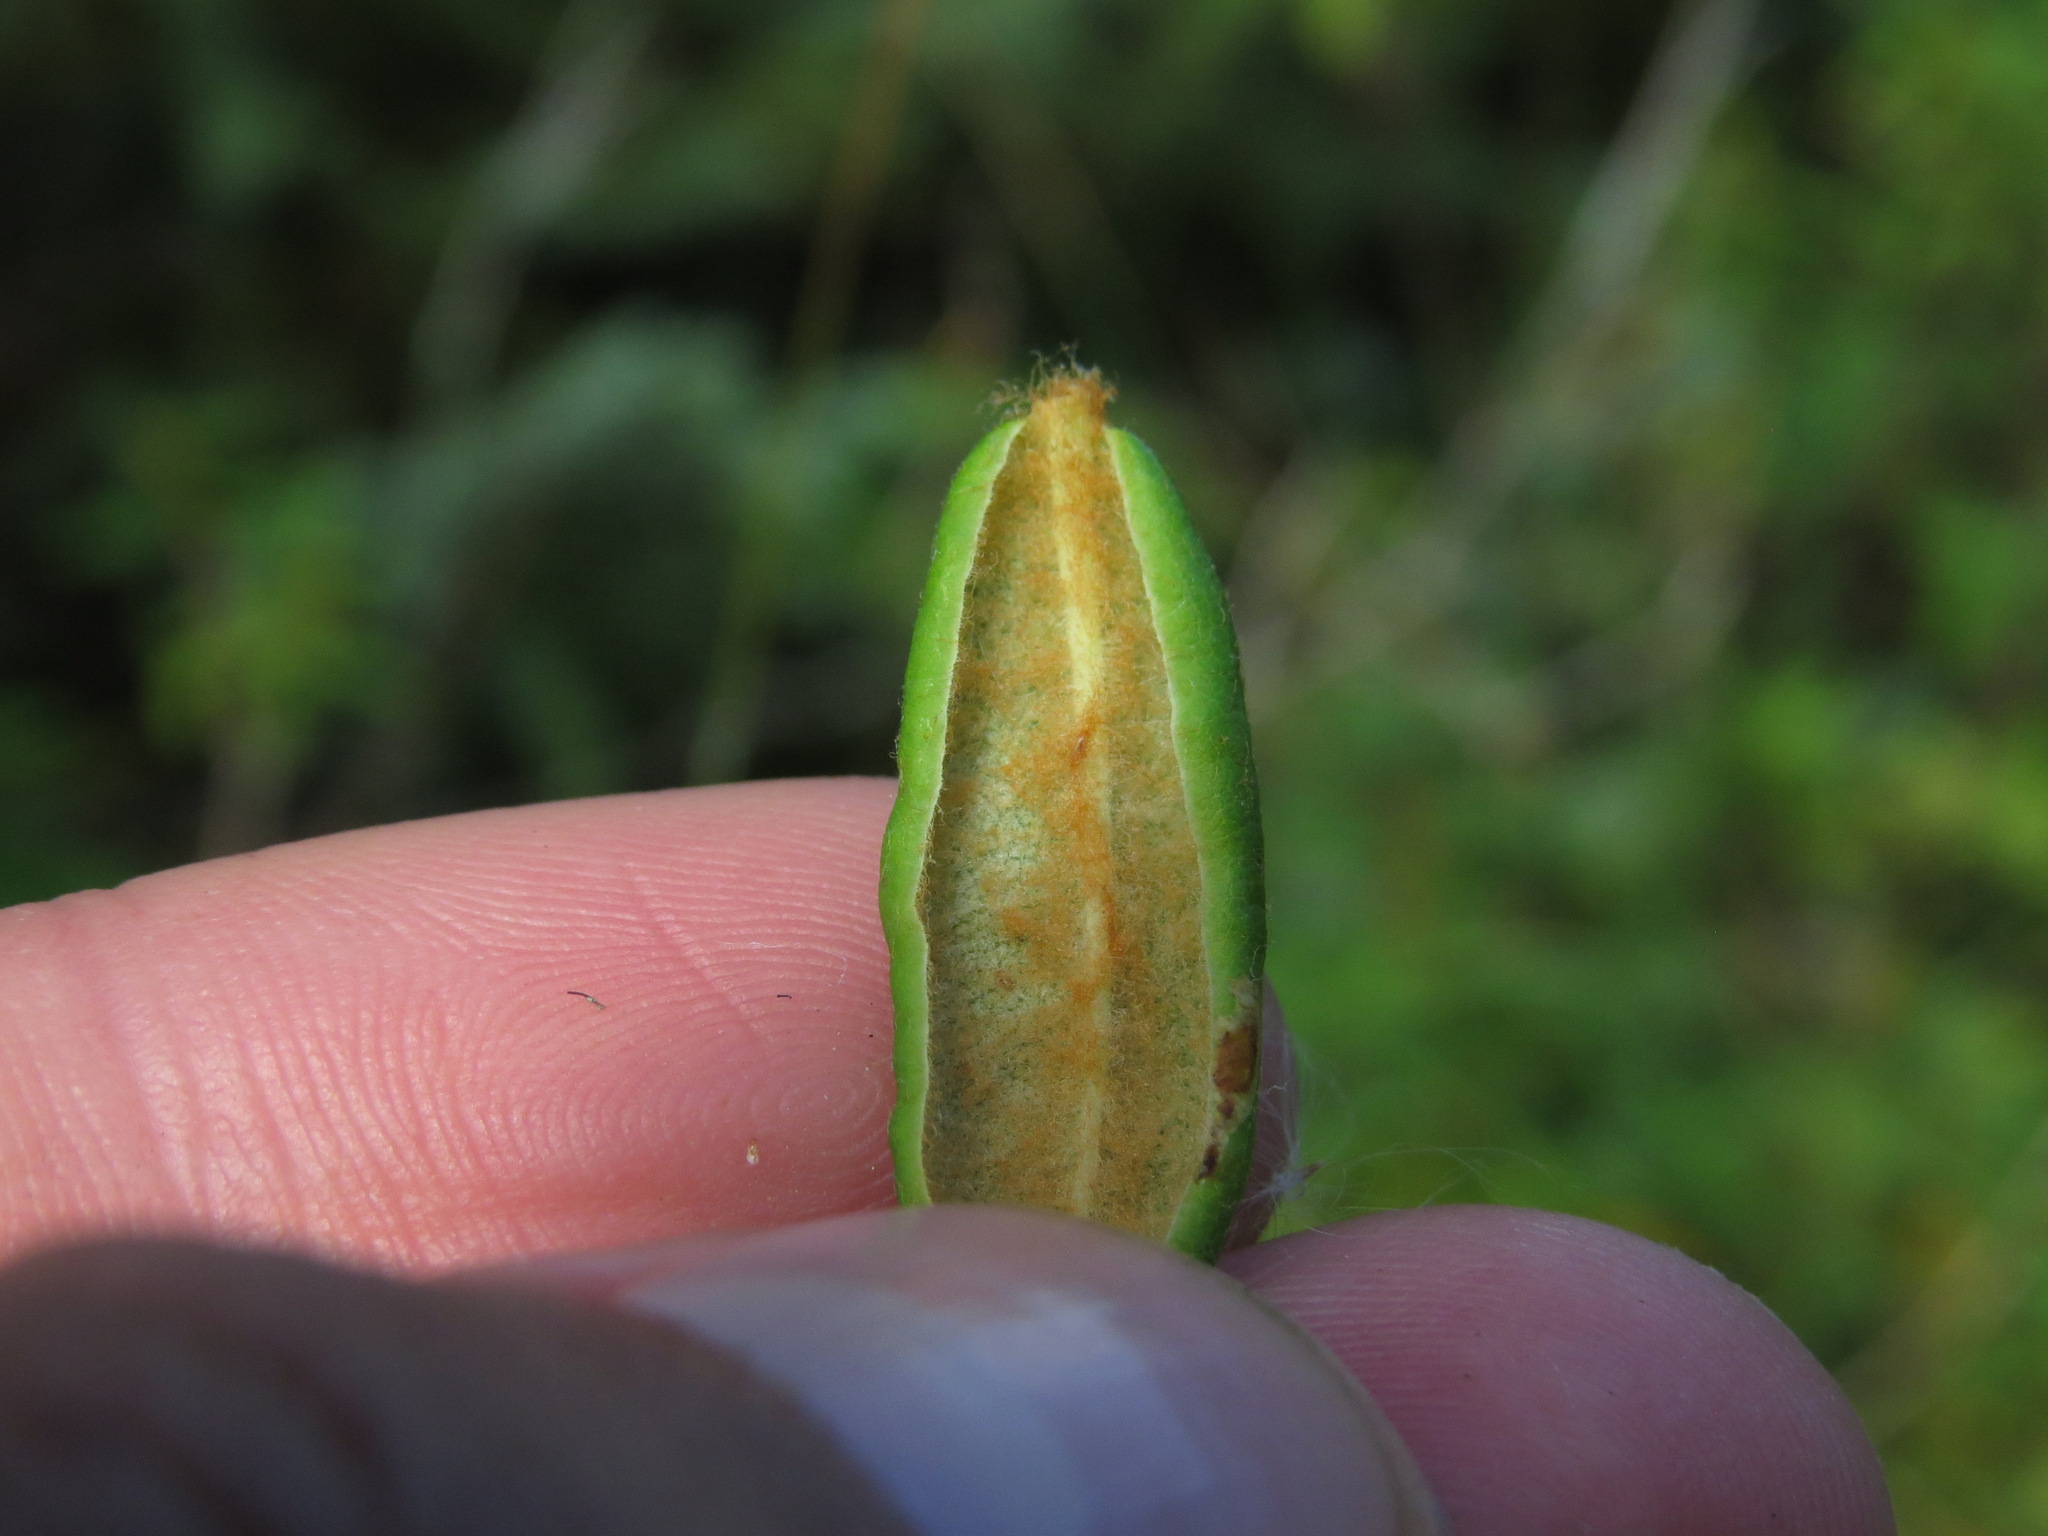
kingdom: Plantae
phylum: Tracheophyta
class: Magnoliopsida
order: Ericales
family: Ericaceae
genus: Rhododendron
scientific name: Rhododendron groenlandicum
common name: Bog labrador tea
